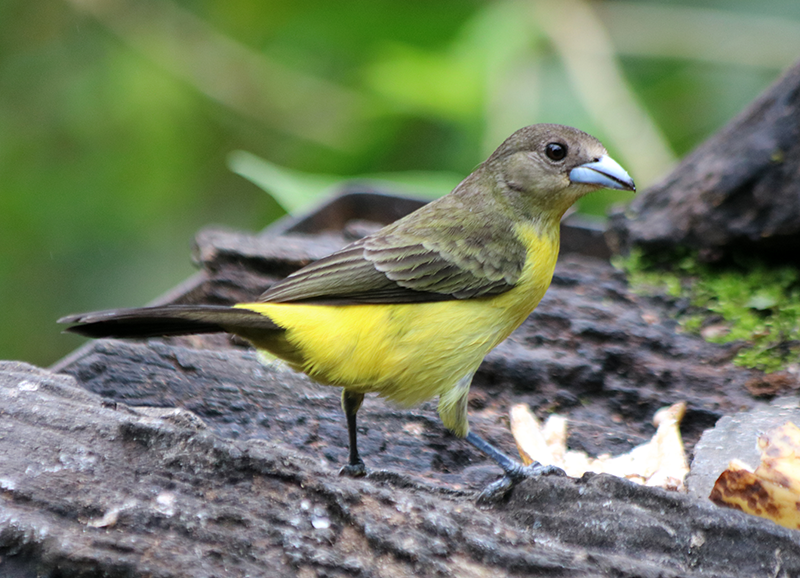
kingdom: Animalia
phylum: Chordata
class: Aves
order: Passeriformes
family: Thraupidae
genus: Ramphocelus
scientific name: Ramphocelus flammigerus
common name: Flame-rumped tanager
